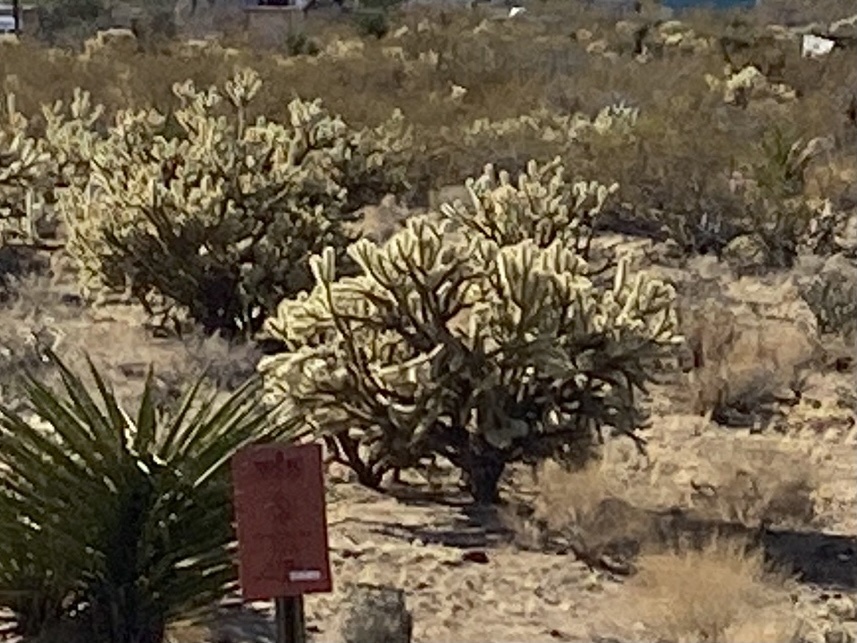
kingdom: Plantae
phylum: Tracheophyta
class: Magnoliopsida
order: Caryophyllales
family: Cactaceae
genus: Cylindropuntia
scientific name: Cylindropuntia acanthocarpa
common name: Buckhorn cholla
